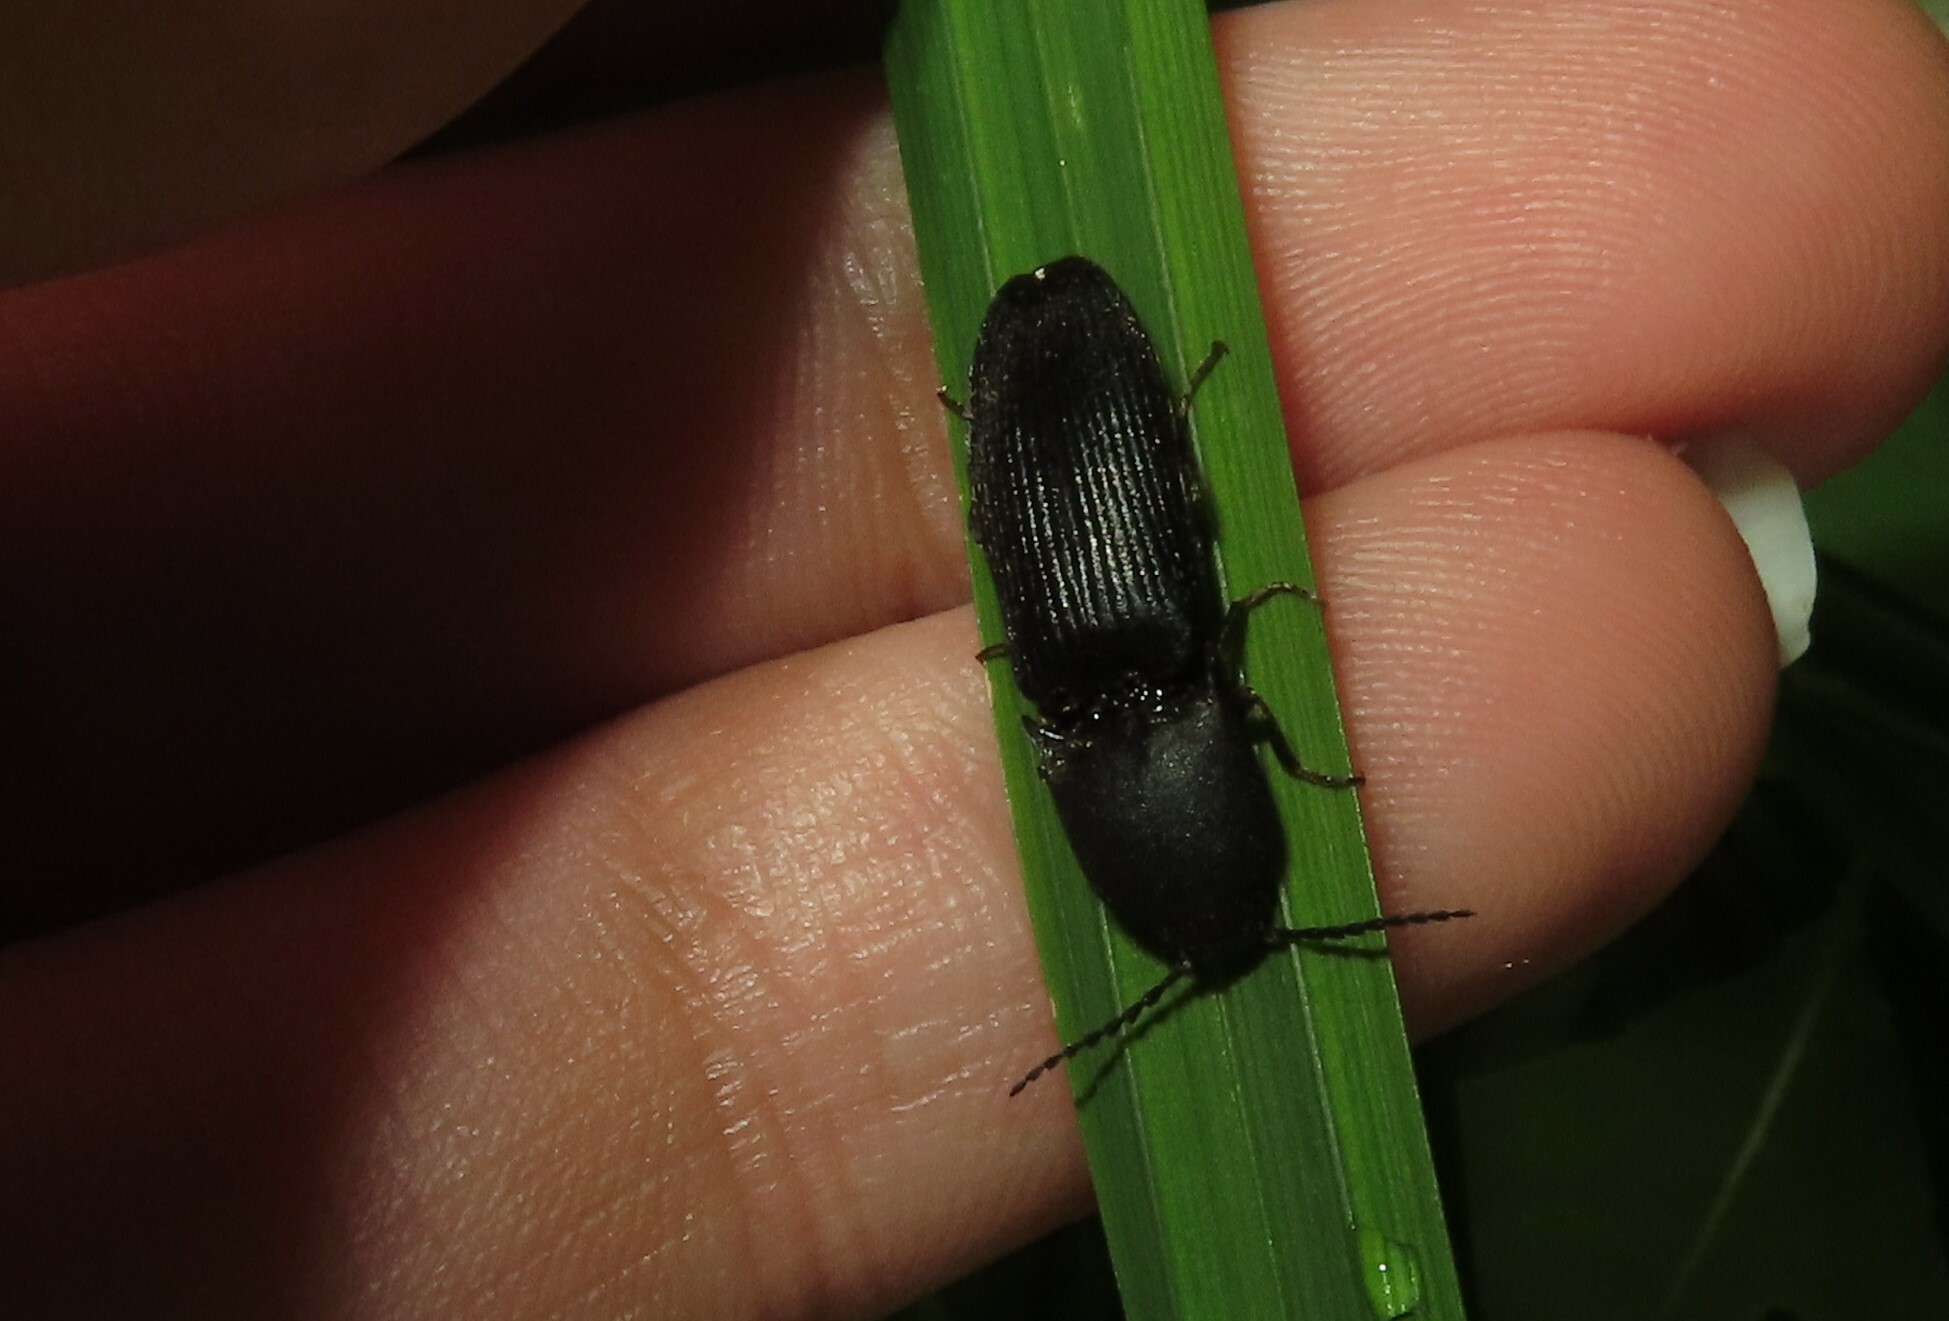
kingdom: Animalia
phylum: Arthropoda
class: Insecta
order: Coleoptera
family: Elateridae
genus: Megapenthes
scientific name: Megapenthes
